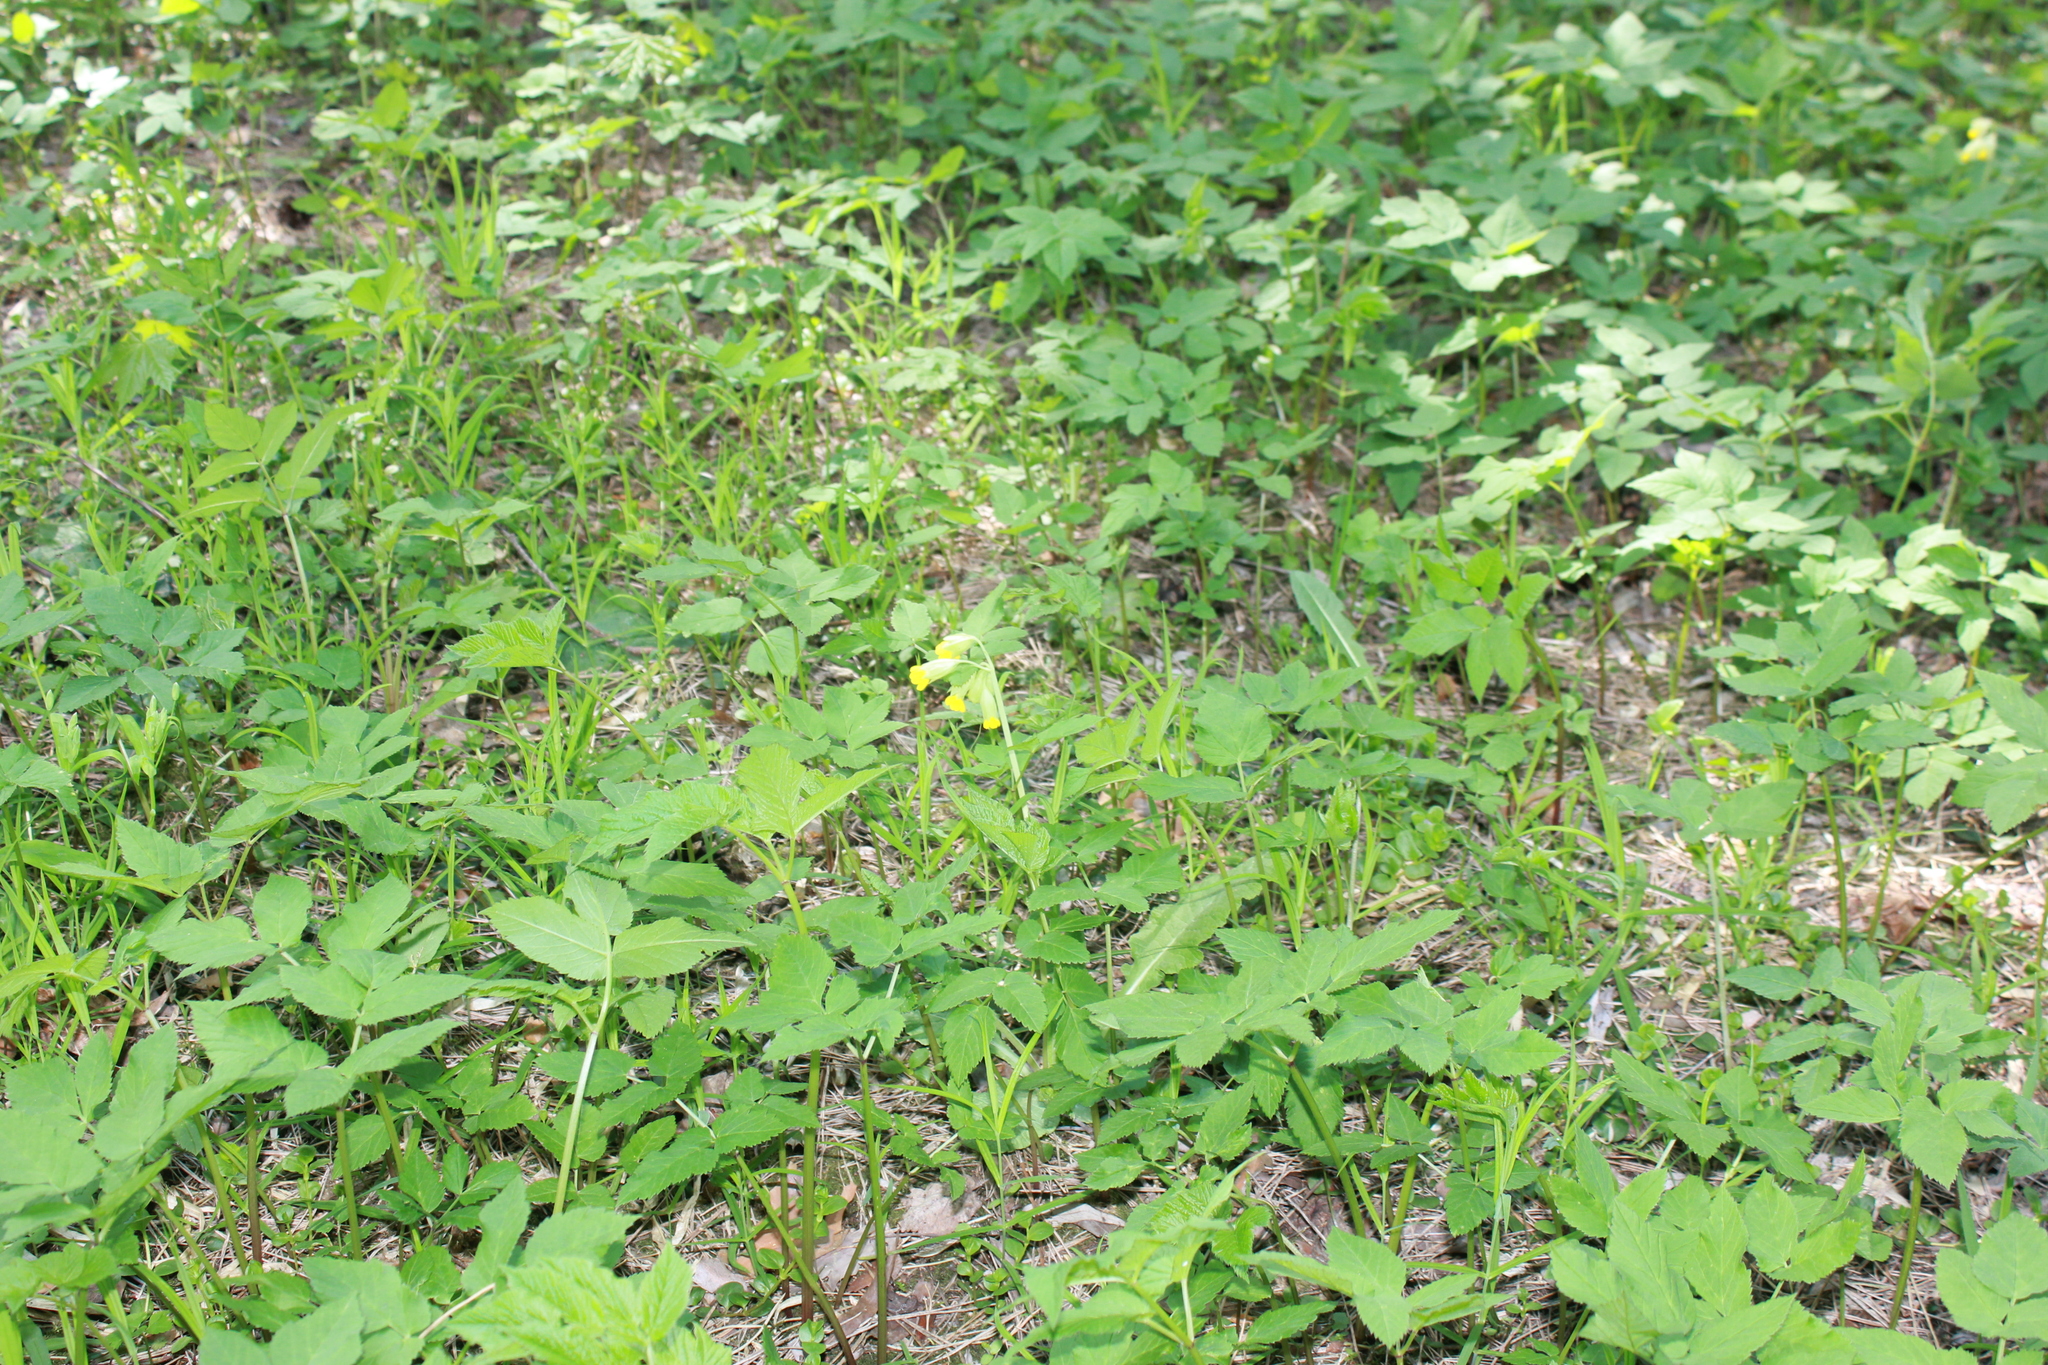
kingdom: Plantae
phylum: Tracheophyta
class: Magnoliopsida
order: Ericales
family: Primulaceae
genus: Primula
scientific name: Primula veris
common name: Cowslip
